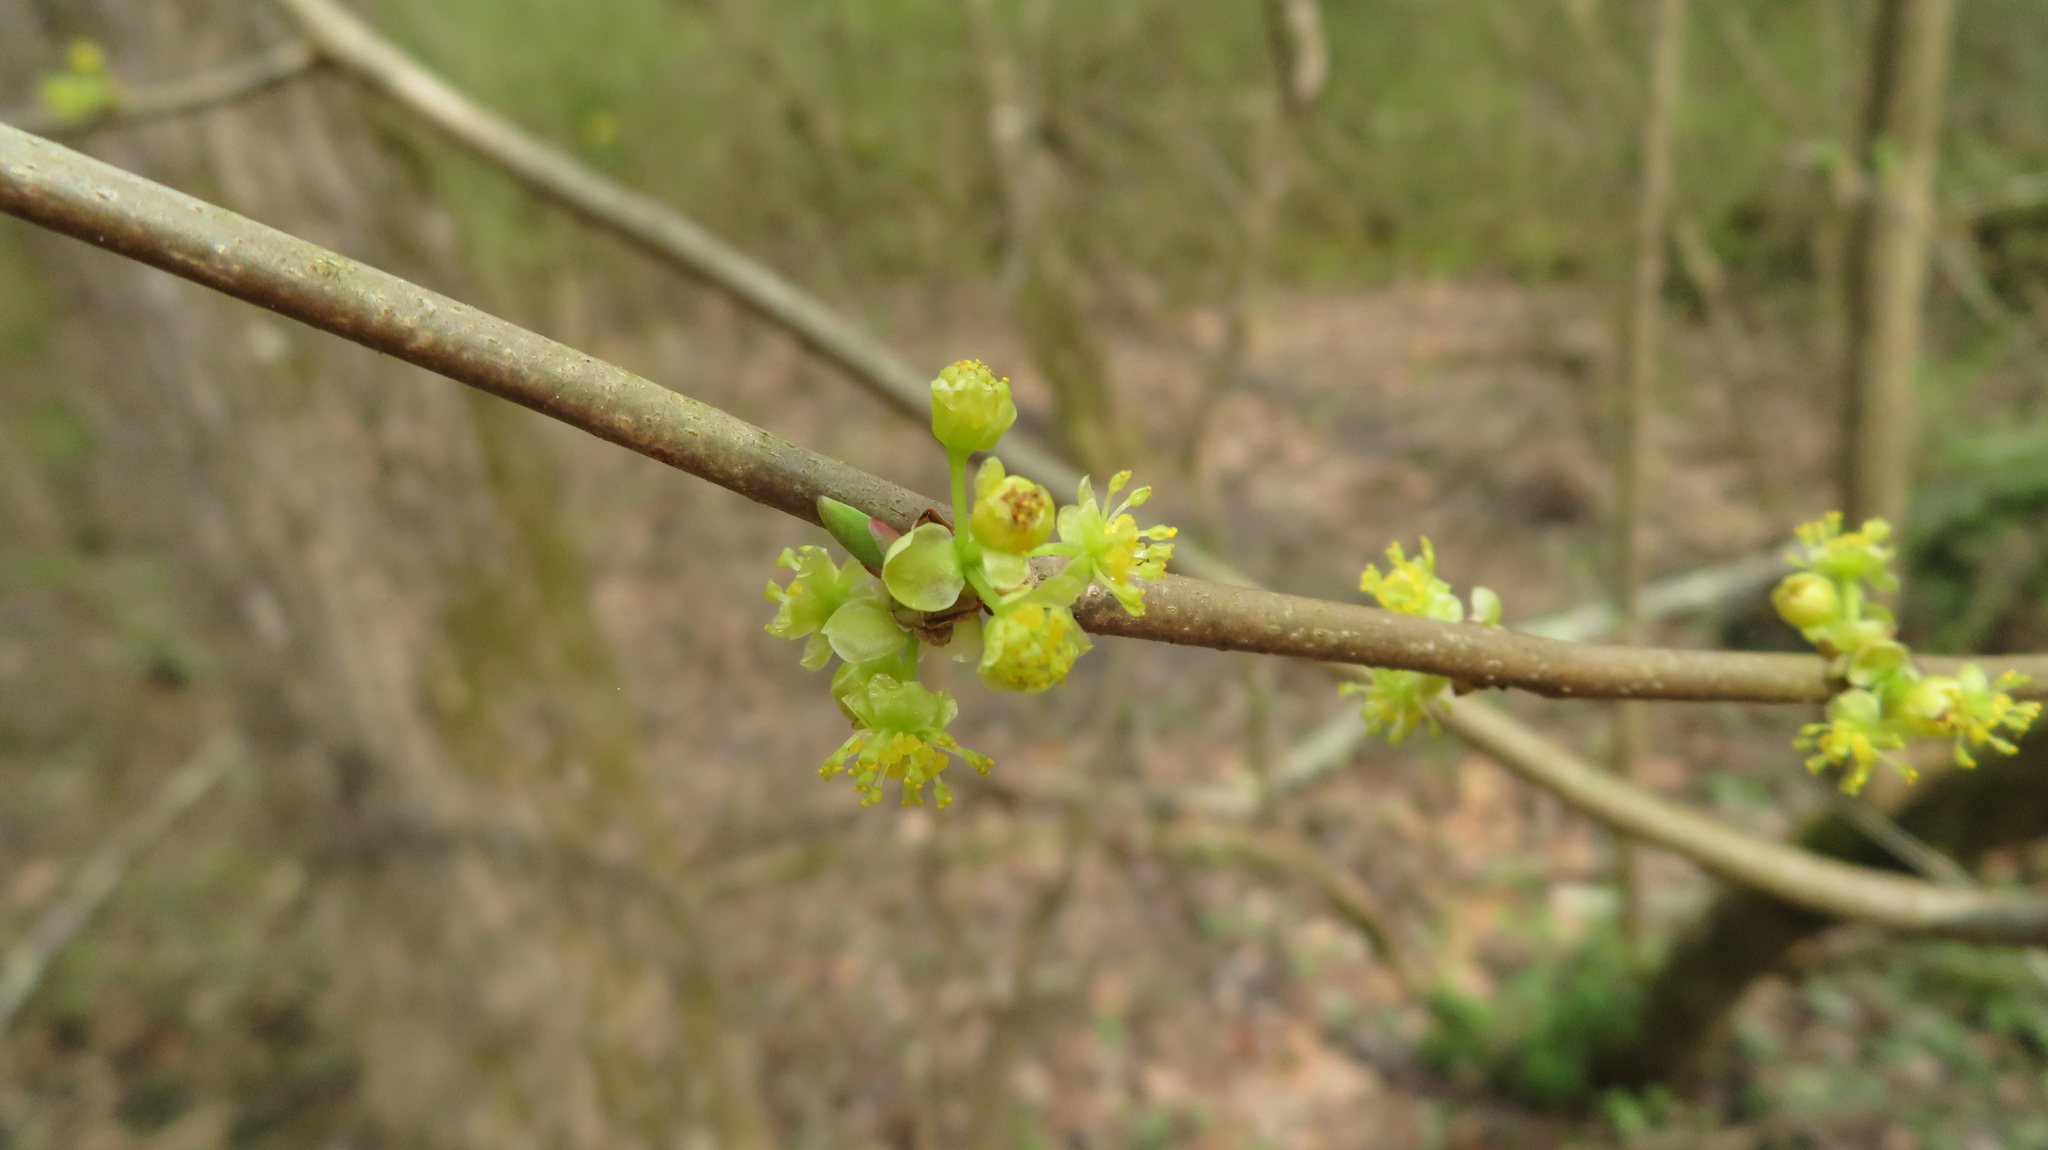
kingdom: Plantae
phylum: Tracheophyta
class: Magnoliopsida
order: Laurales
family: Lauraceae
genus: Lindera
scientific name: Lindera benzoin
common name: Spicebush
